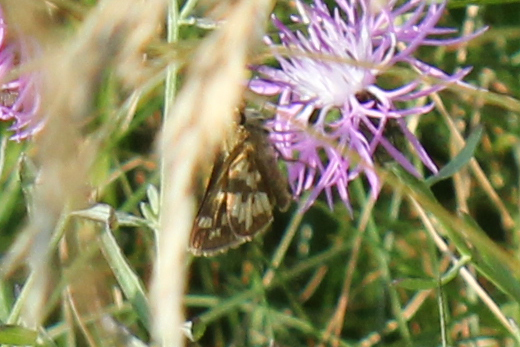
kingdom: Animalia
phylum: Arthropoda
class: Insecta
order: Lepidoptera
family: Hesperiidae
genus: Polites
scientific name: Polites coras
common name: Peck's skipper
